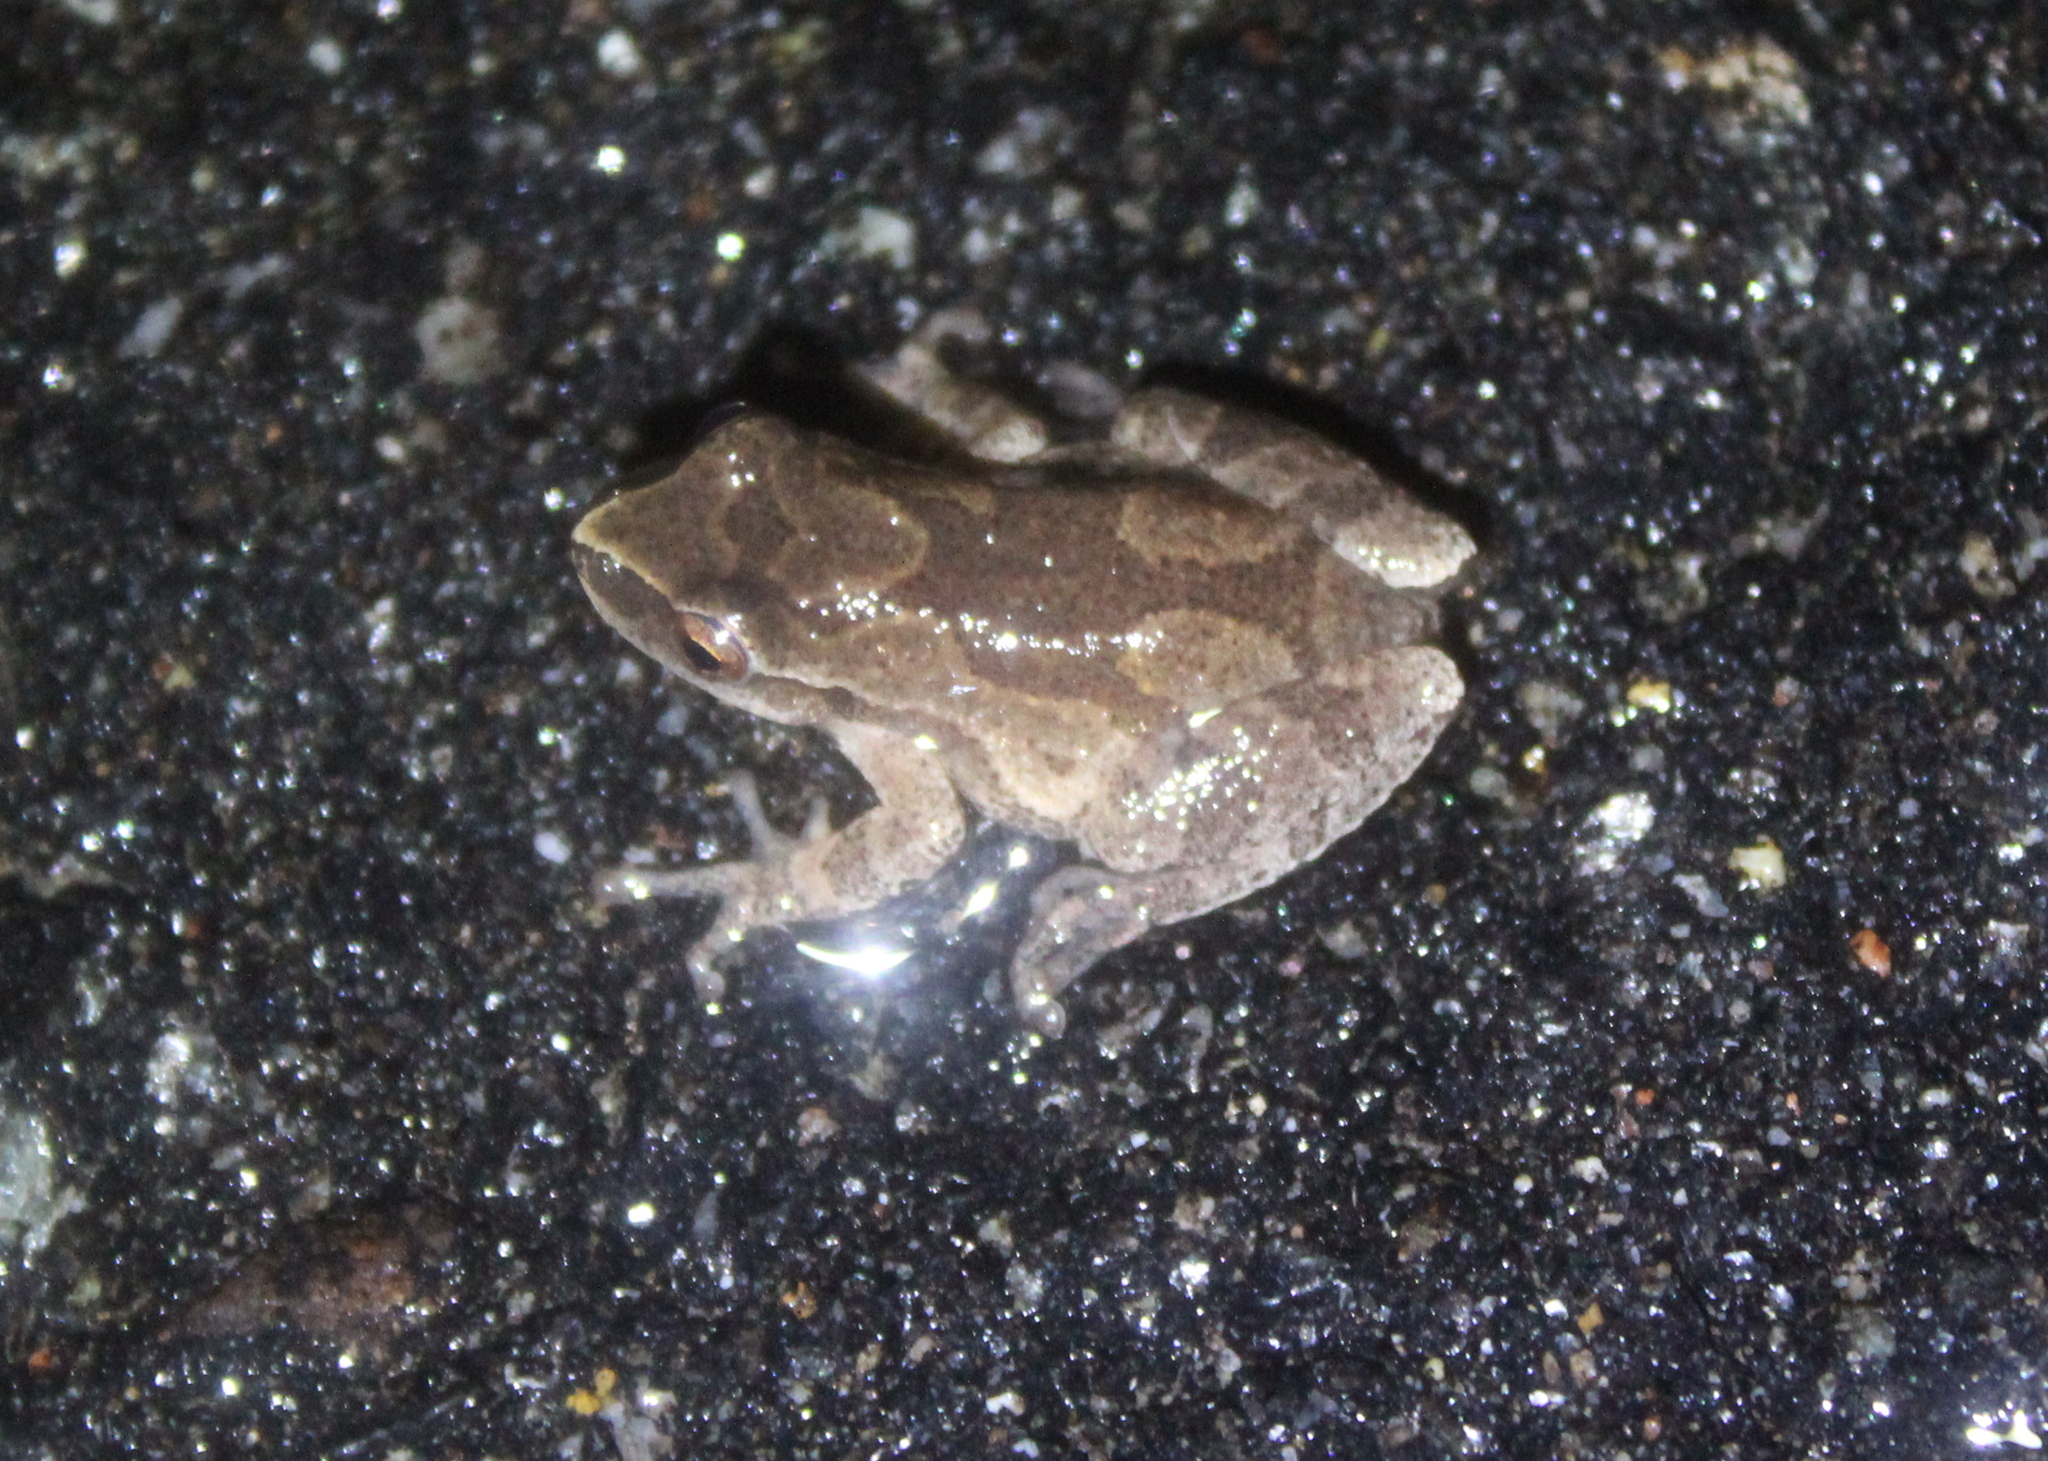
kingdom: Animalia
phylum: Chordata
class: Amphibia
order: Anura
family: Hylidae
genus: Pseudacris
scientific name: Pseudacris crucifer
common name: Spring peeper
